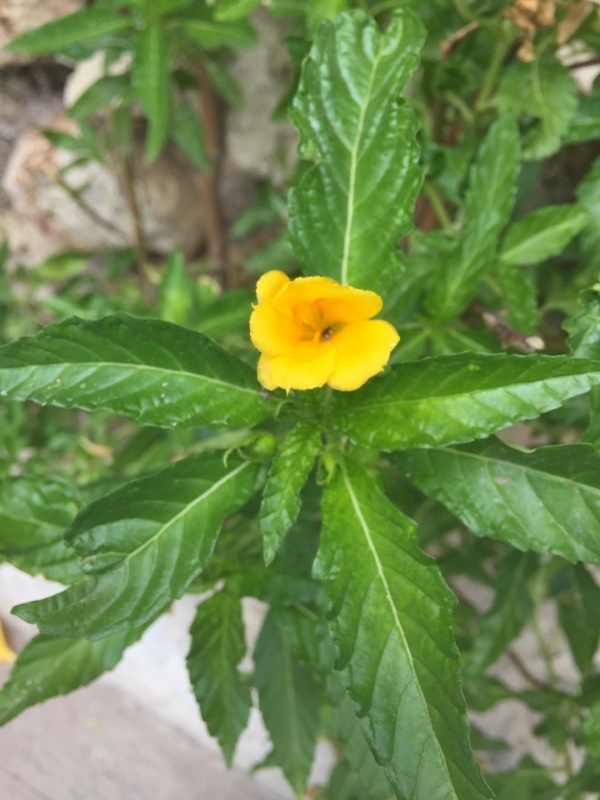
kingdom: Plantae
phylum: Tracheophyta
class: Magnoliopsida
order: Malpighiales
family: Turneraceae
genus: Turnera
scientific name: Turnera ulmifolia
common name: Ramgoat dashalong
